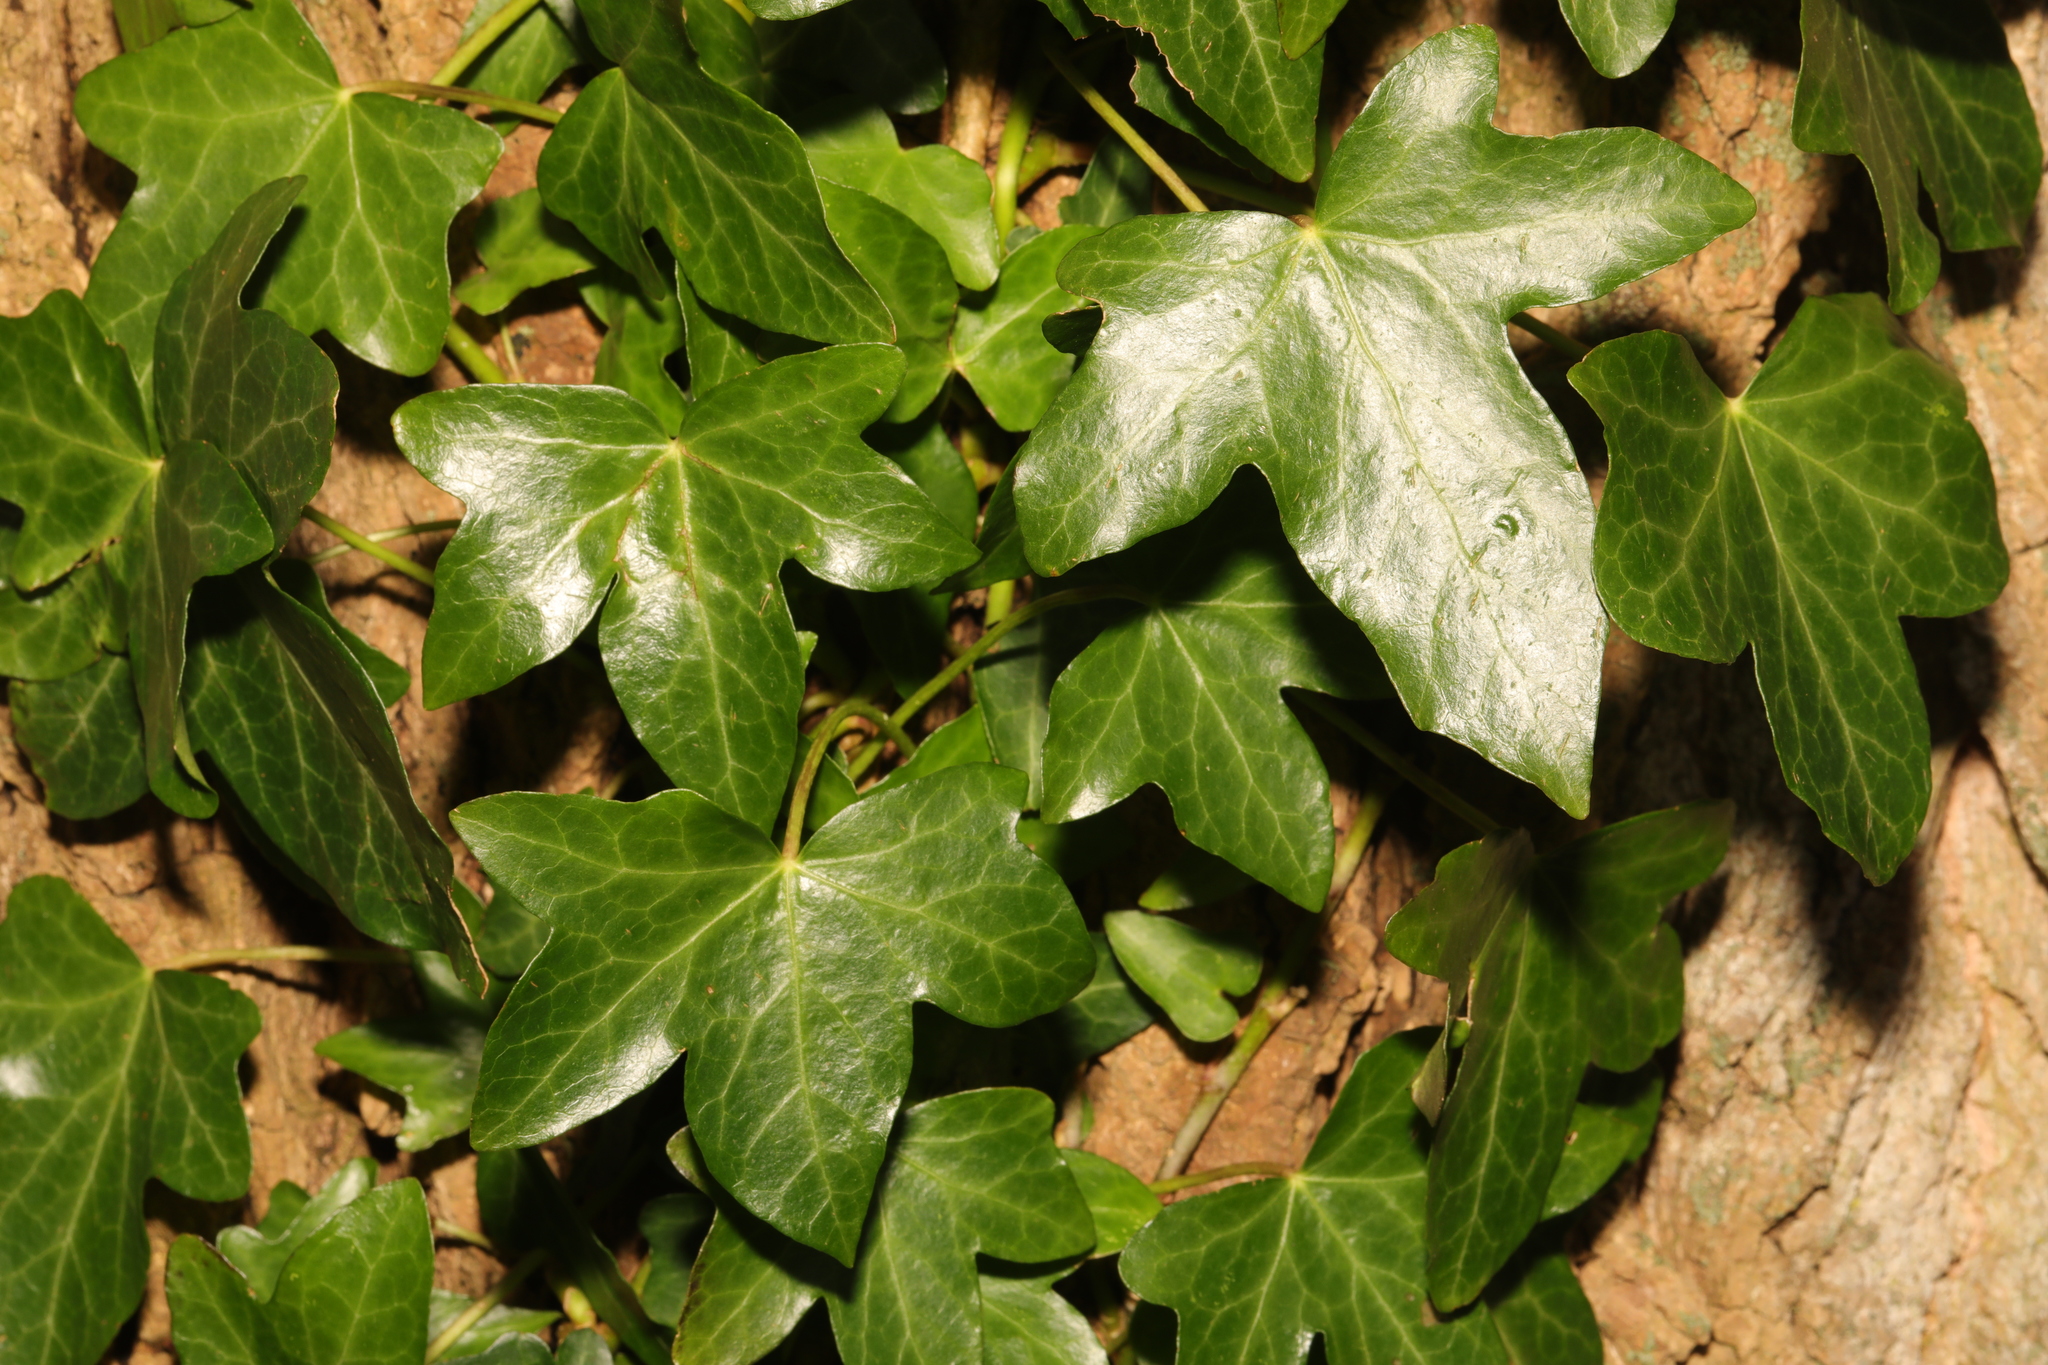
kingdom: Plantae
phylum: Tracheophyta
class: Magnoliopsida
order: Apiales
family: Araliaceae
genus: Hedera
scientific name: Hedera helix
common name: Ivy
